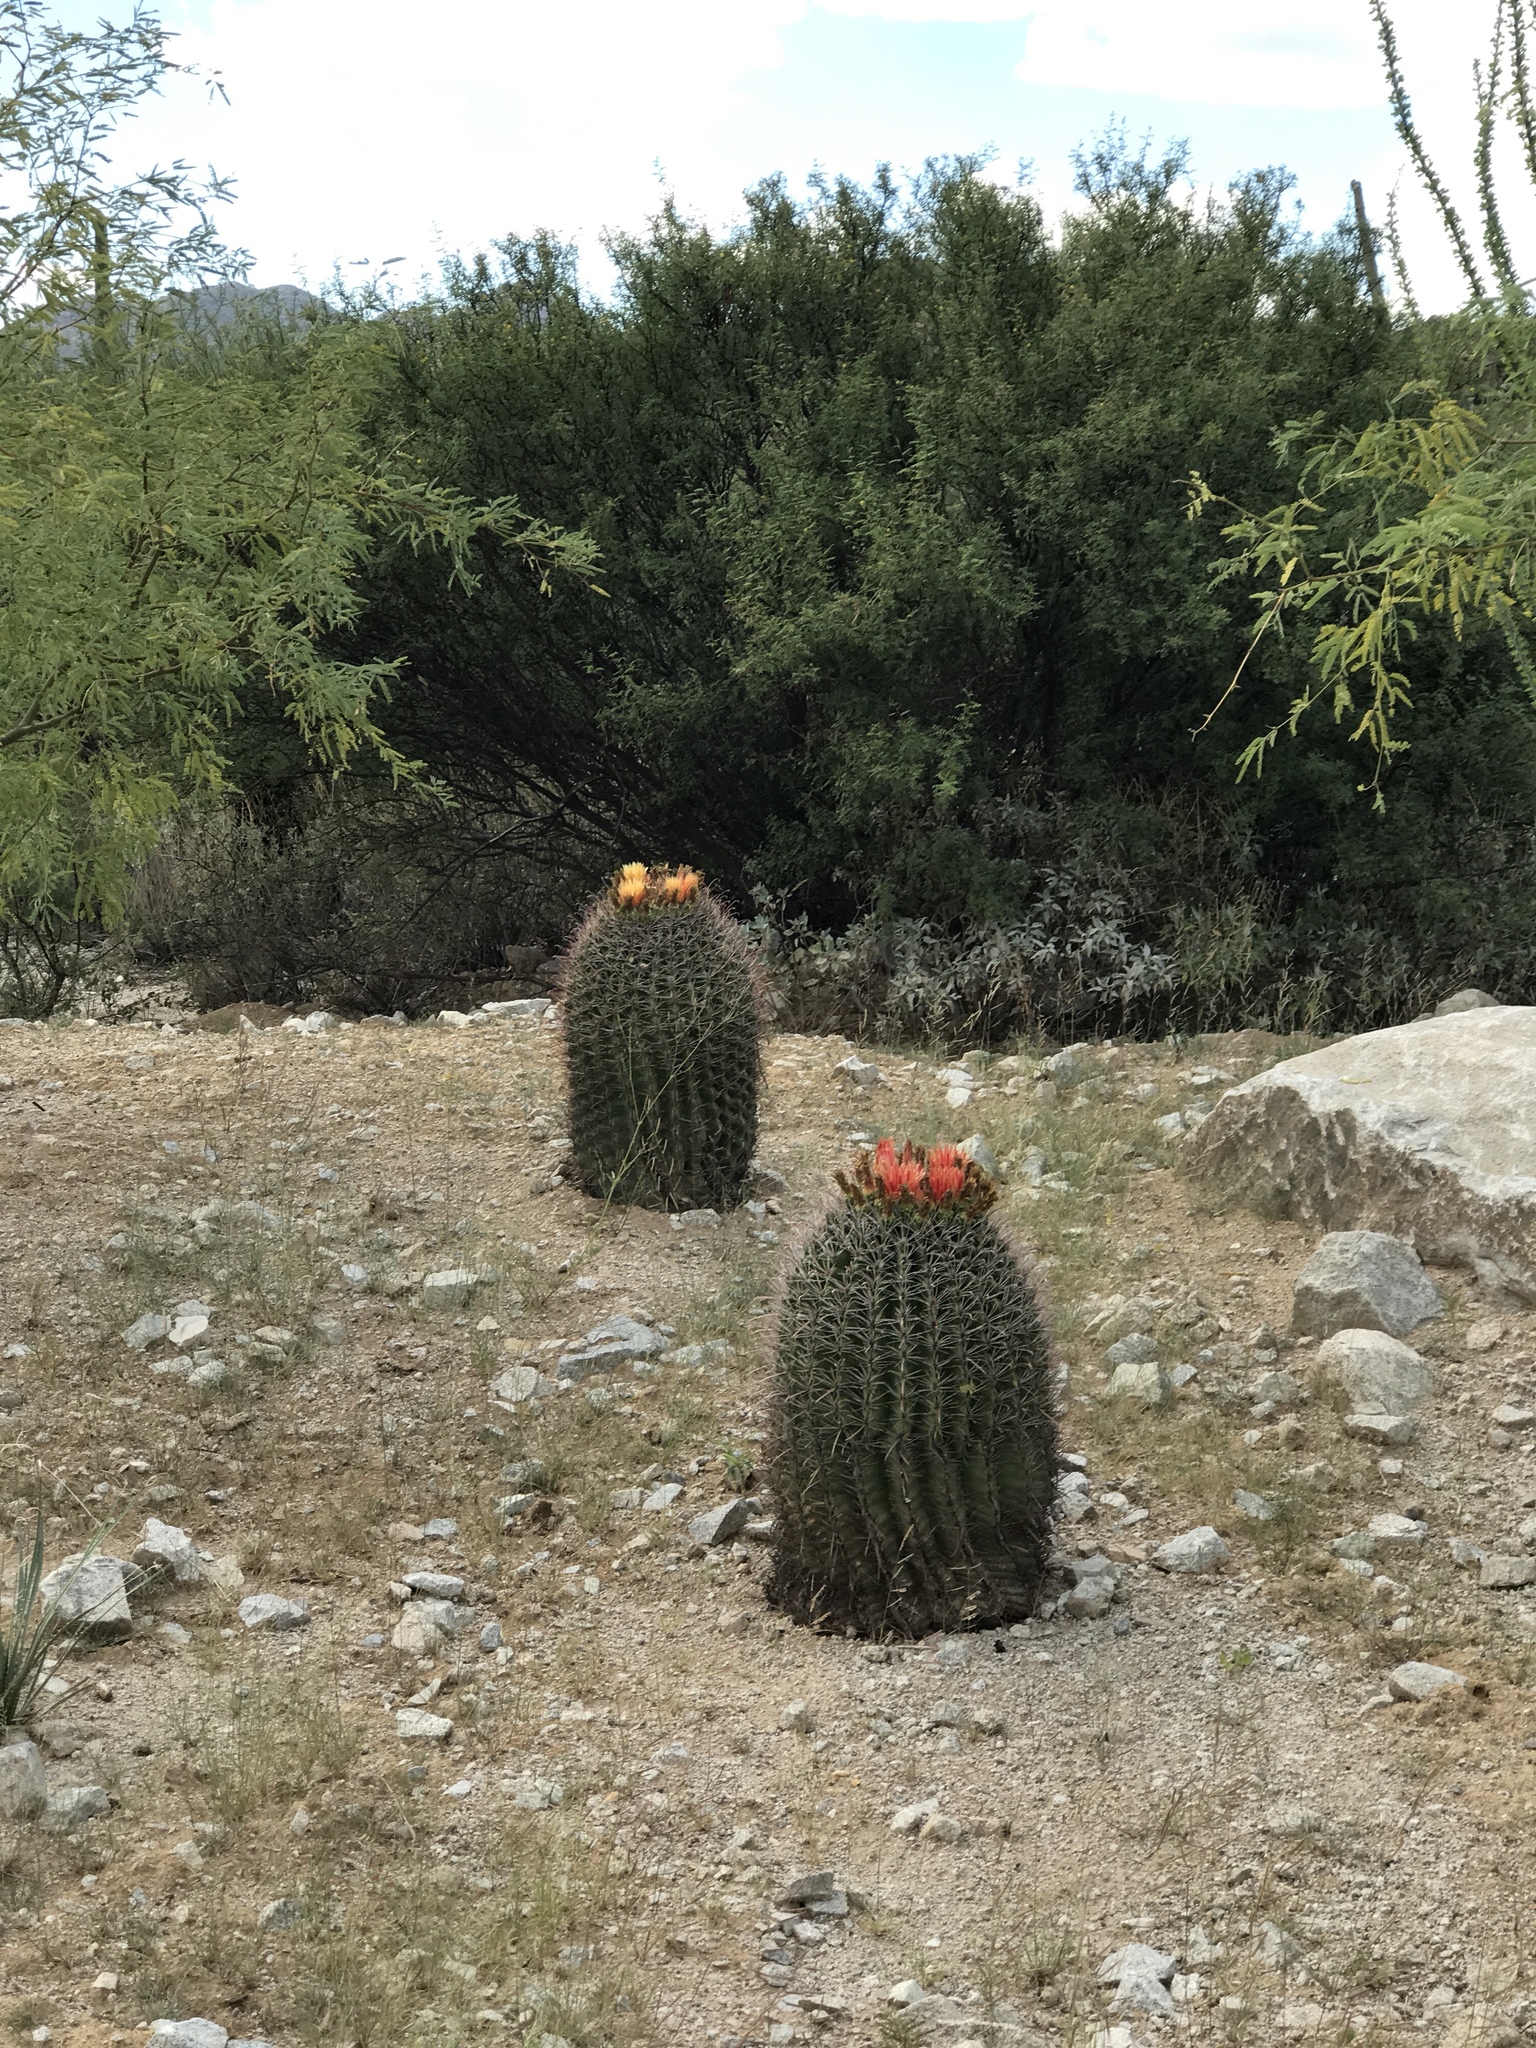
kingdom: Plantae
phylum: Tracheophyta
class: Magnoliopsida
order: Caryophyllales
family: Cactaceae
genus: Ferocactus
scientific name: Ferocactus wislizeni
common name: Candy barrel cactus
